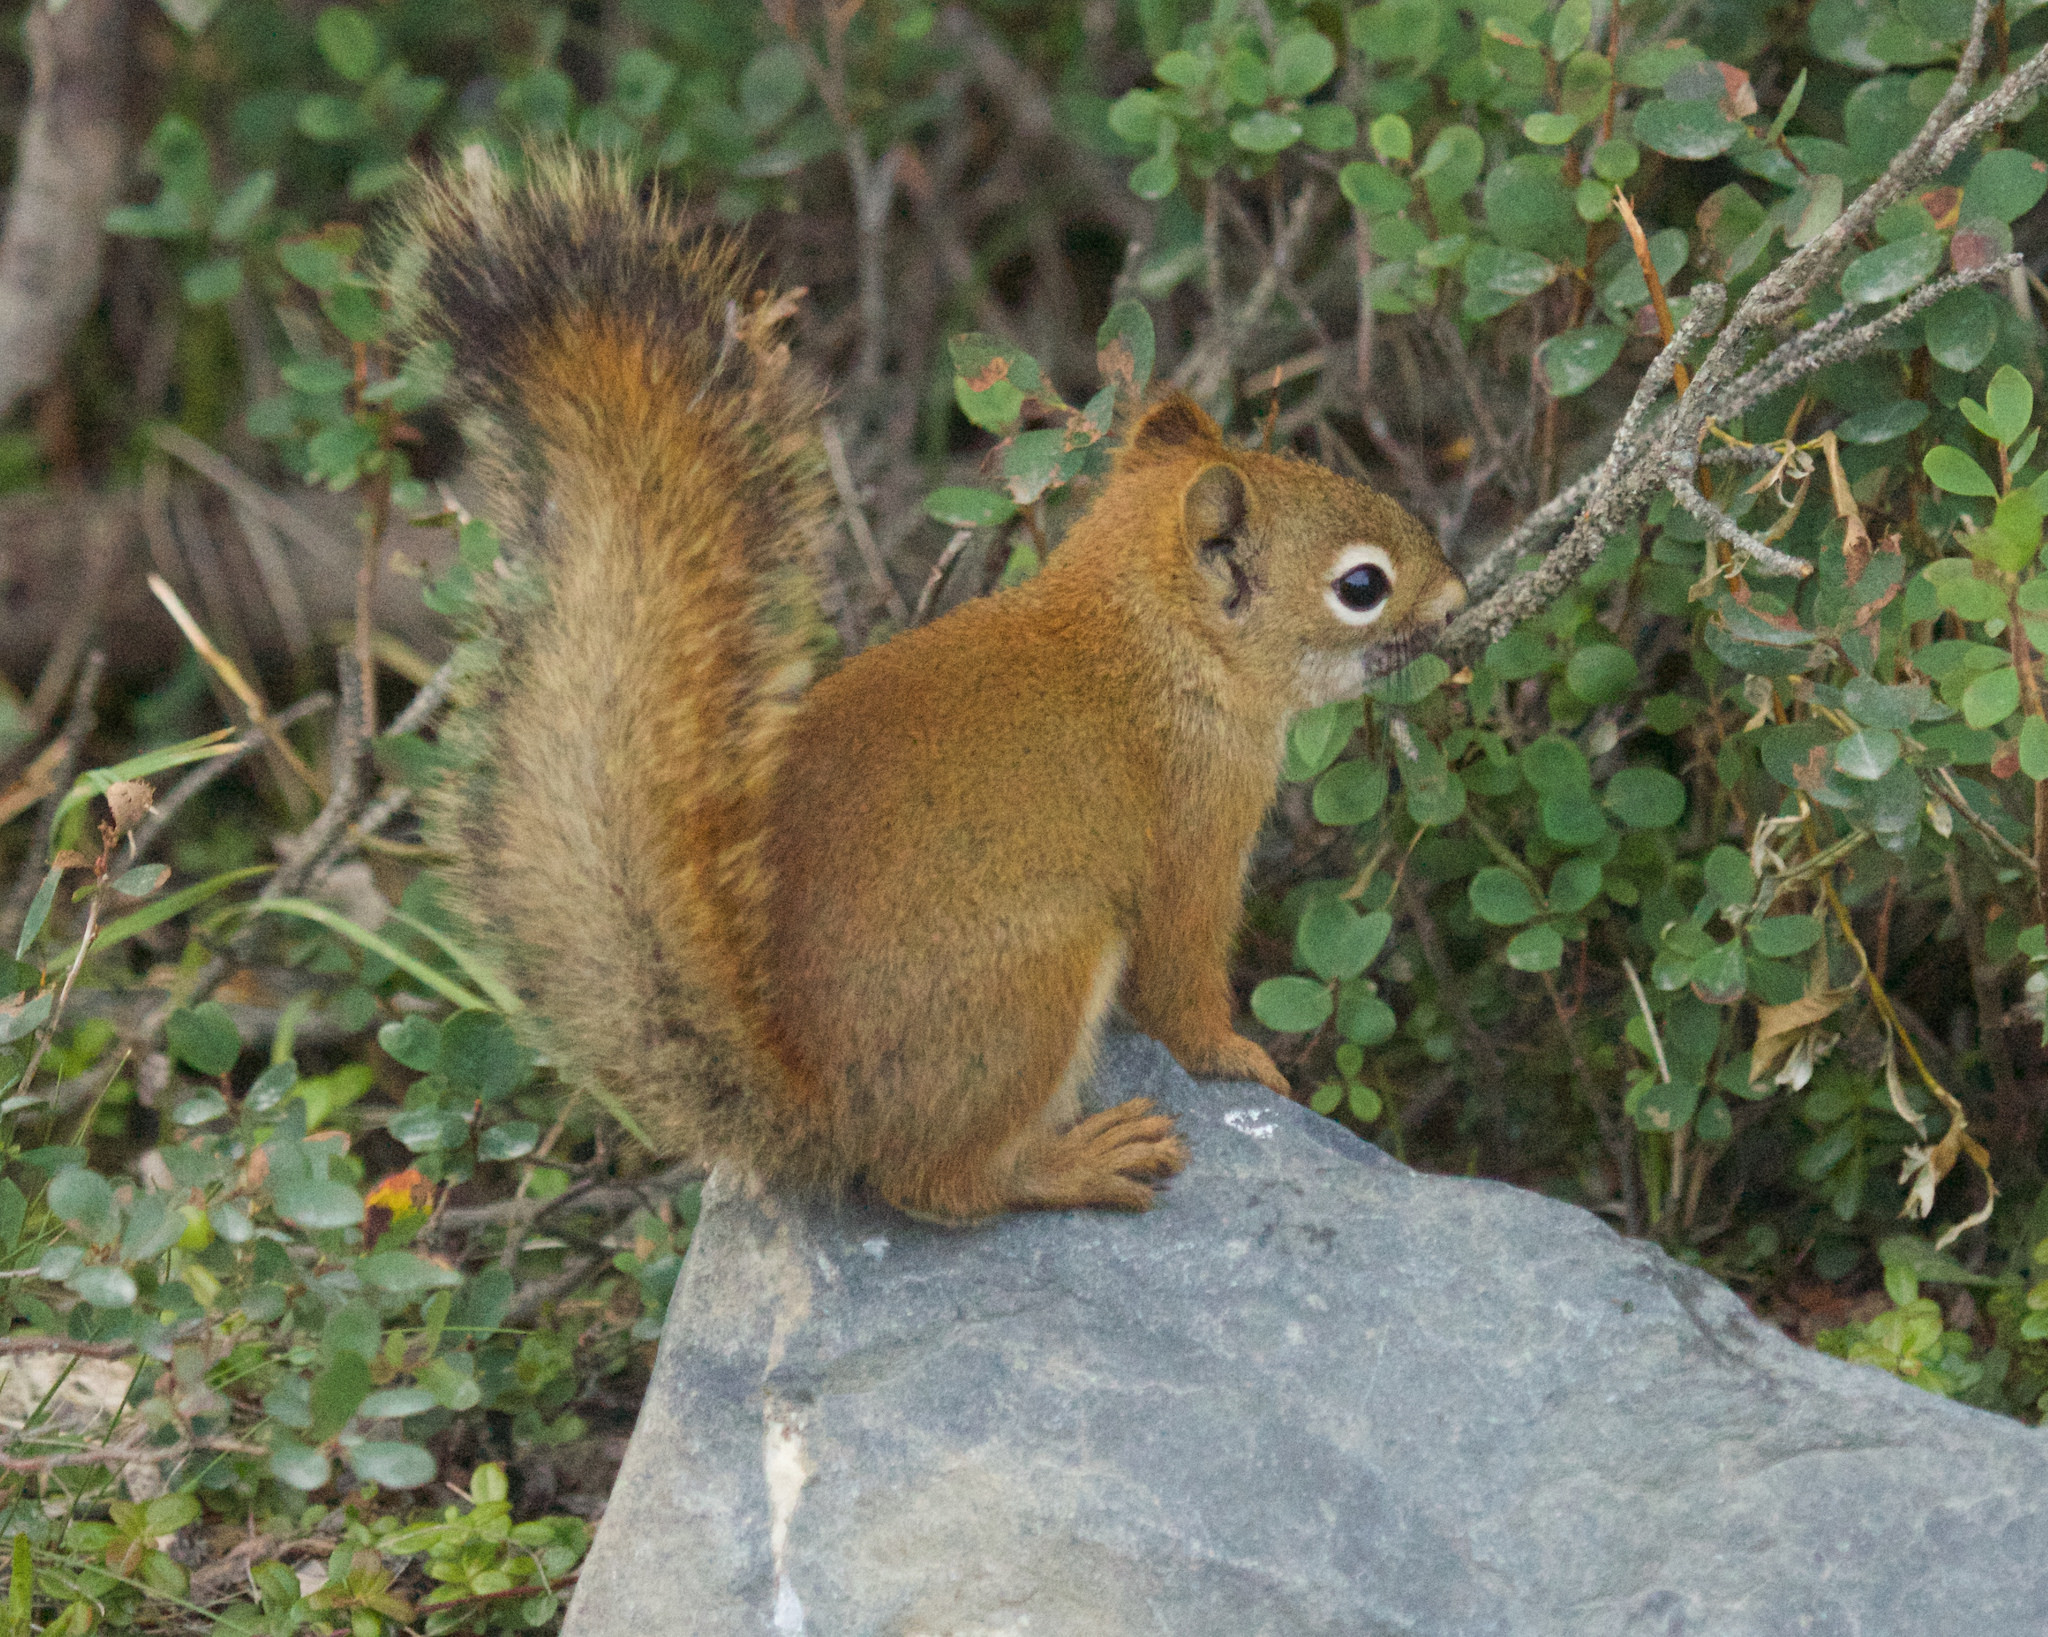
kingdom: Animalia
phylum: Chordata
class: Mammalia
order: Rodentia
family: Sciuridae
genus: Tamiasciurus
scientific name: Tamiasciurus hudsonicus
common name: Red squirrel
